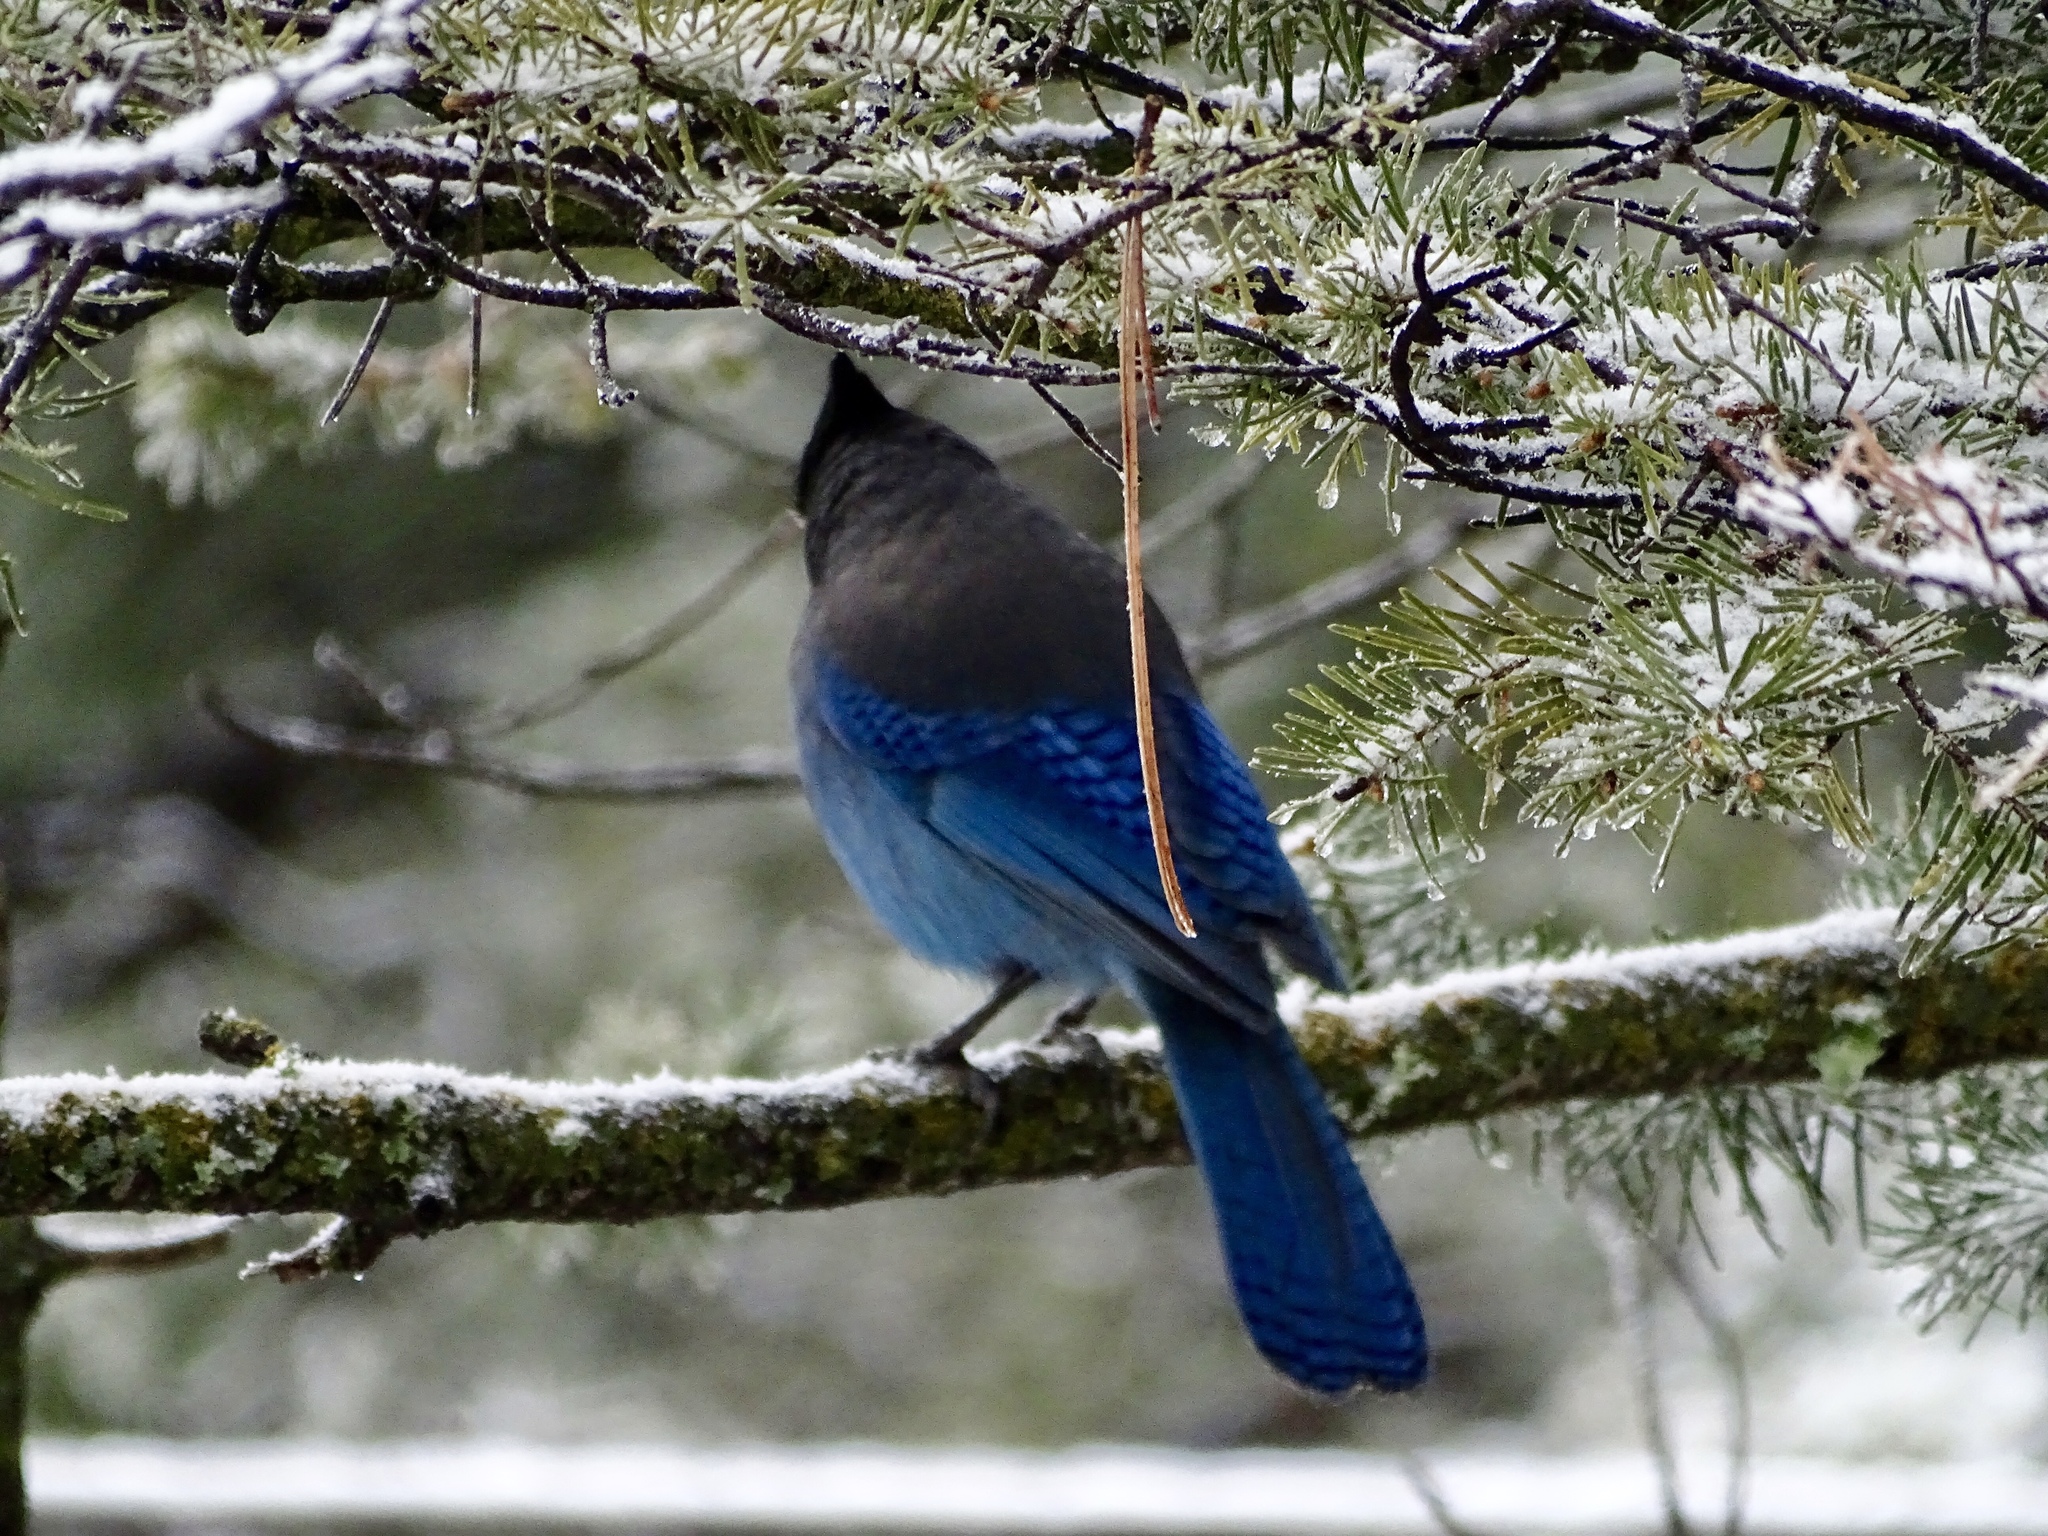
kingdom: Animalia
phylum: Chordata
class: Aves
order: Passeriformes
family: Corvidae
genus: Cyanocitta
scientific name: Cyanocitta stelleri
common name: Steller's jay
